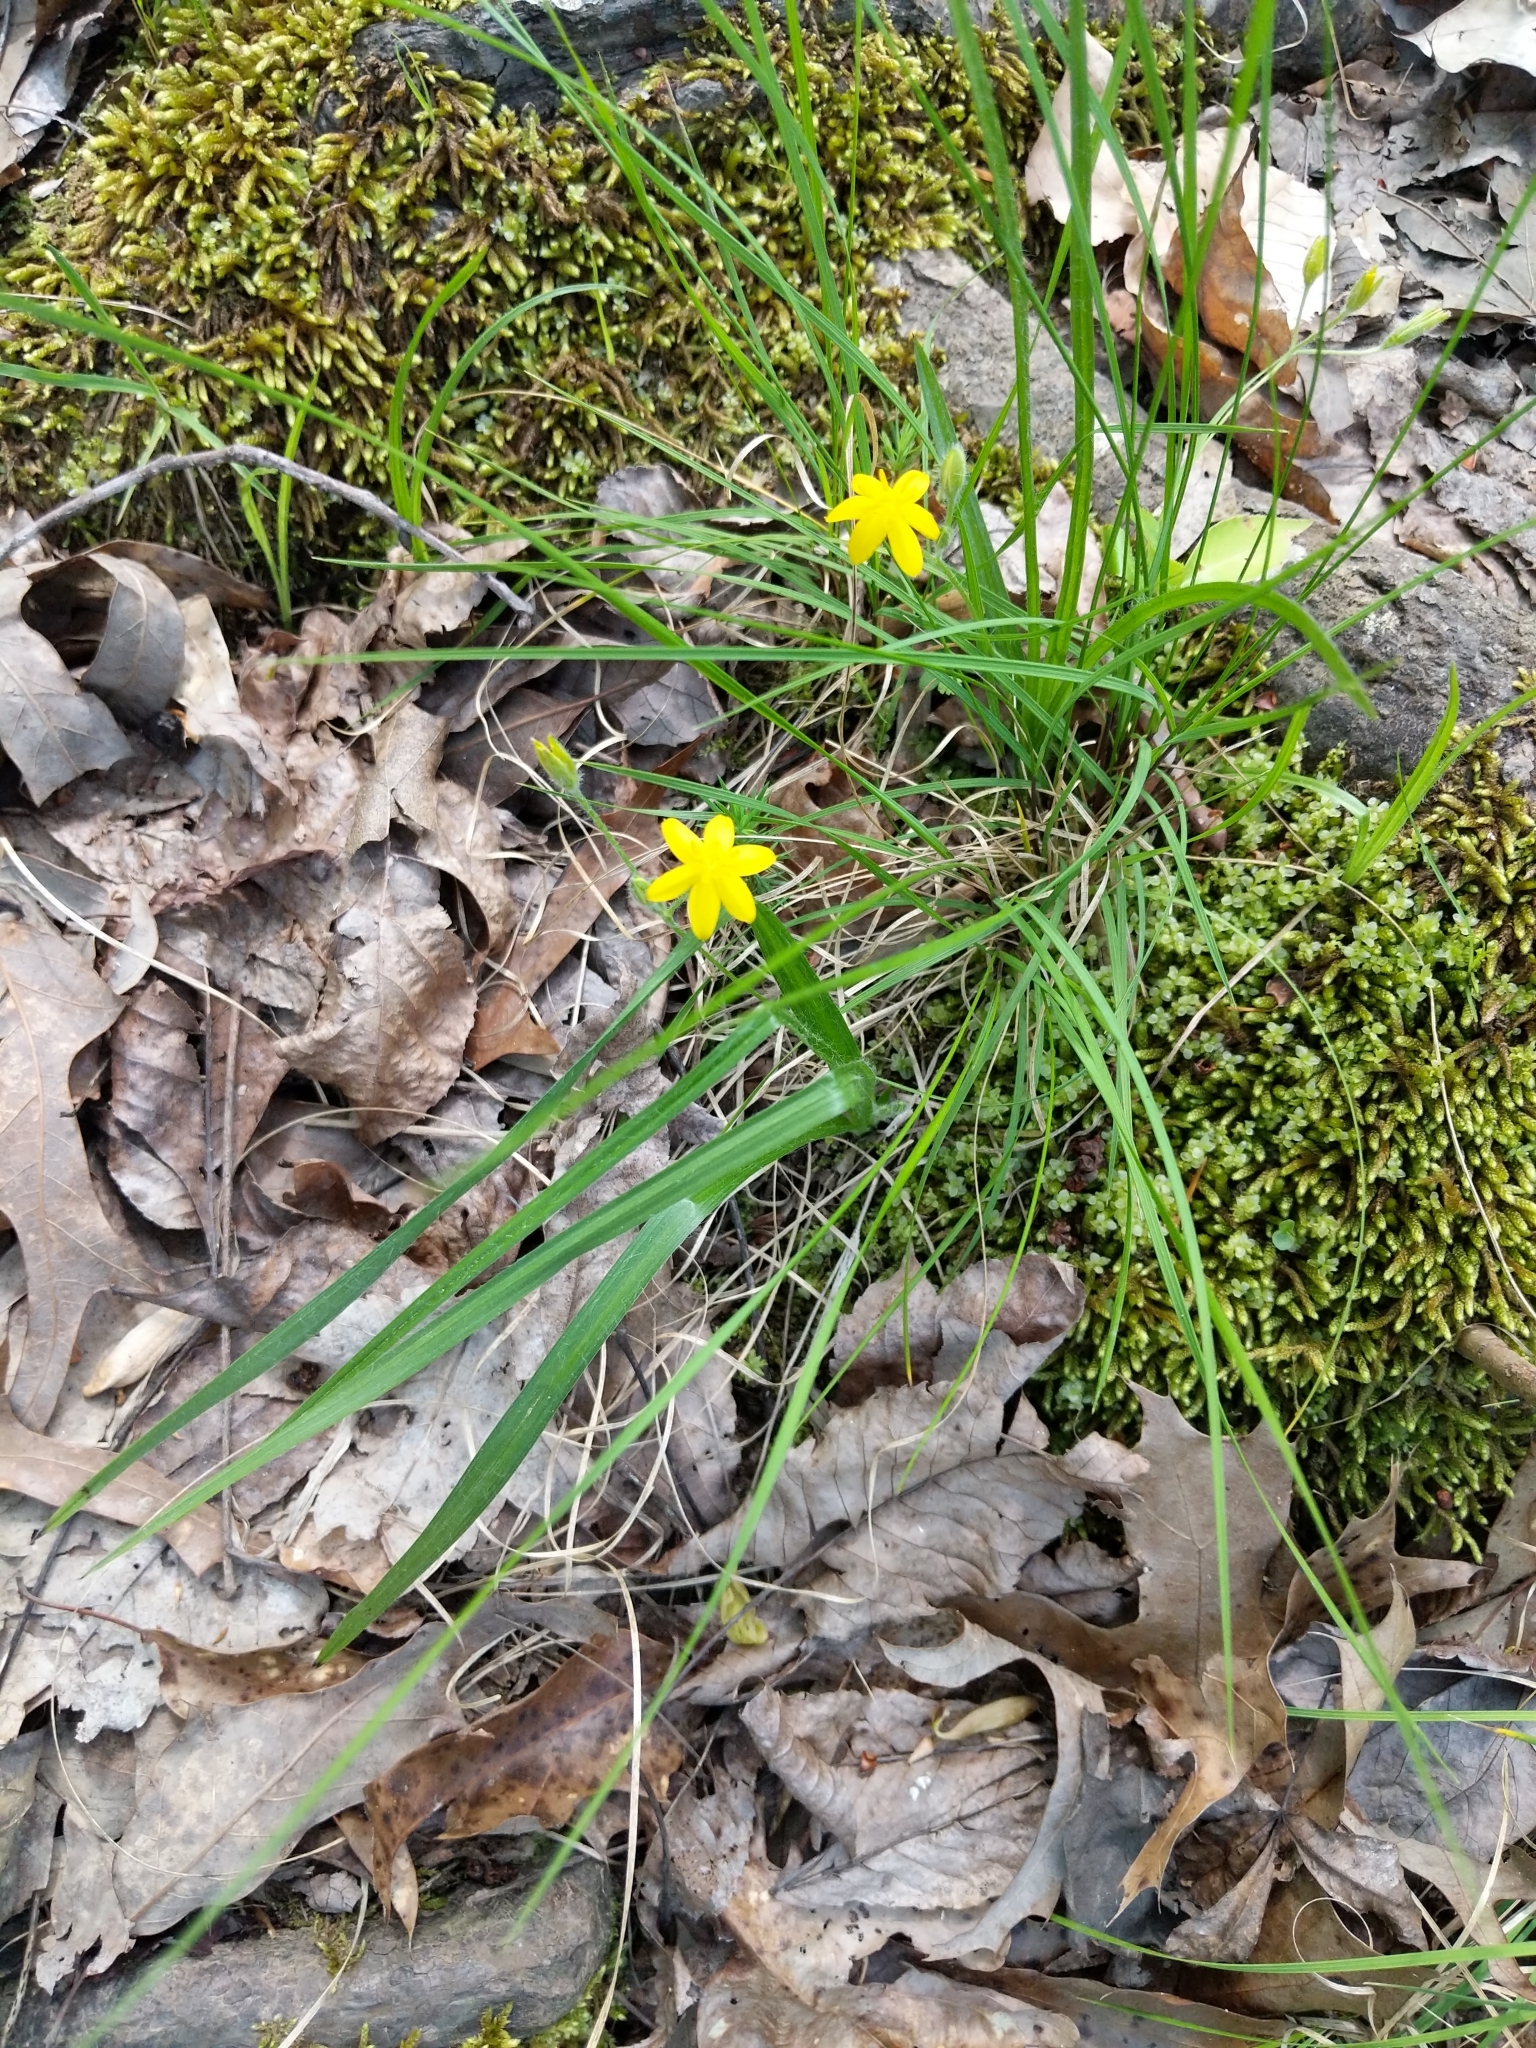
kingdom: Plantae
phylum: Tracheophyta
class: Liliopsida
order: Asparagales
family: Hypoxidaceae
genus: Hypoxis
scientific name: Hypoxis hirsuta
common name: Common goldstar
